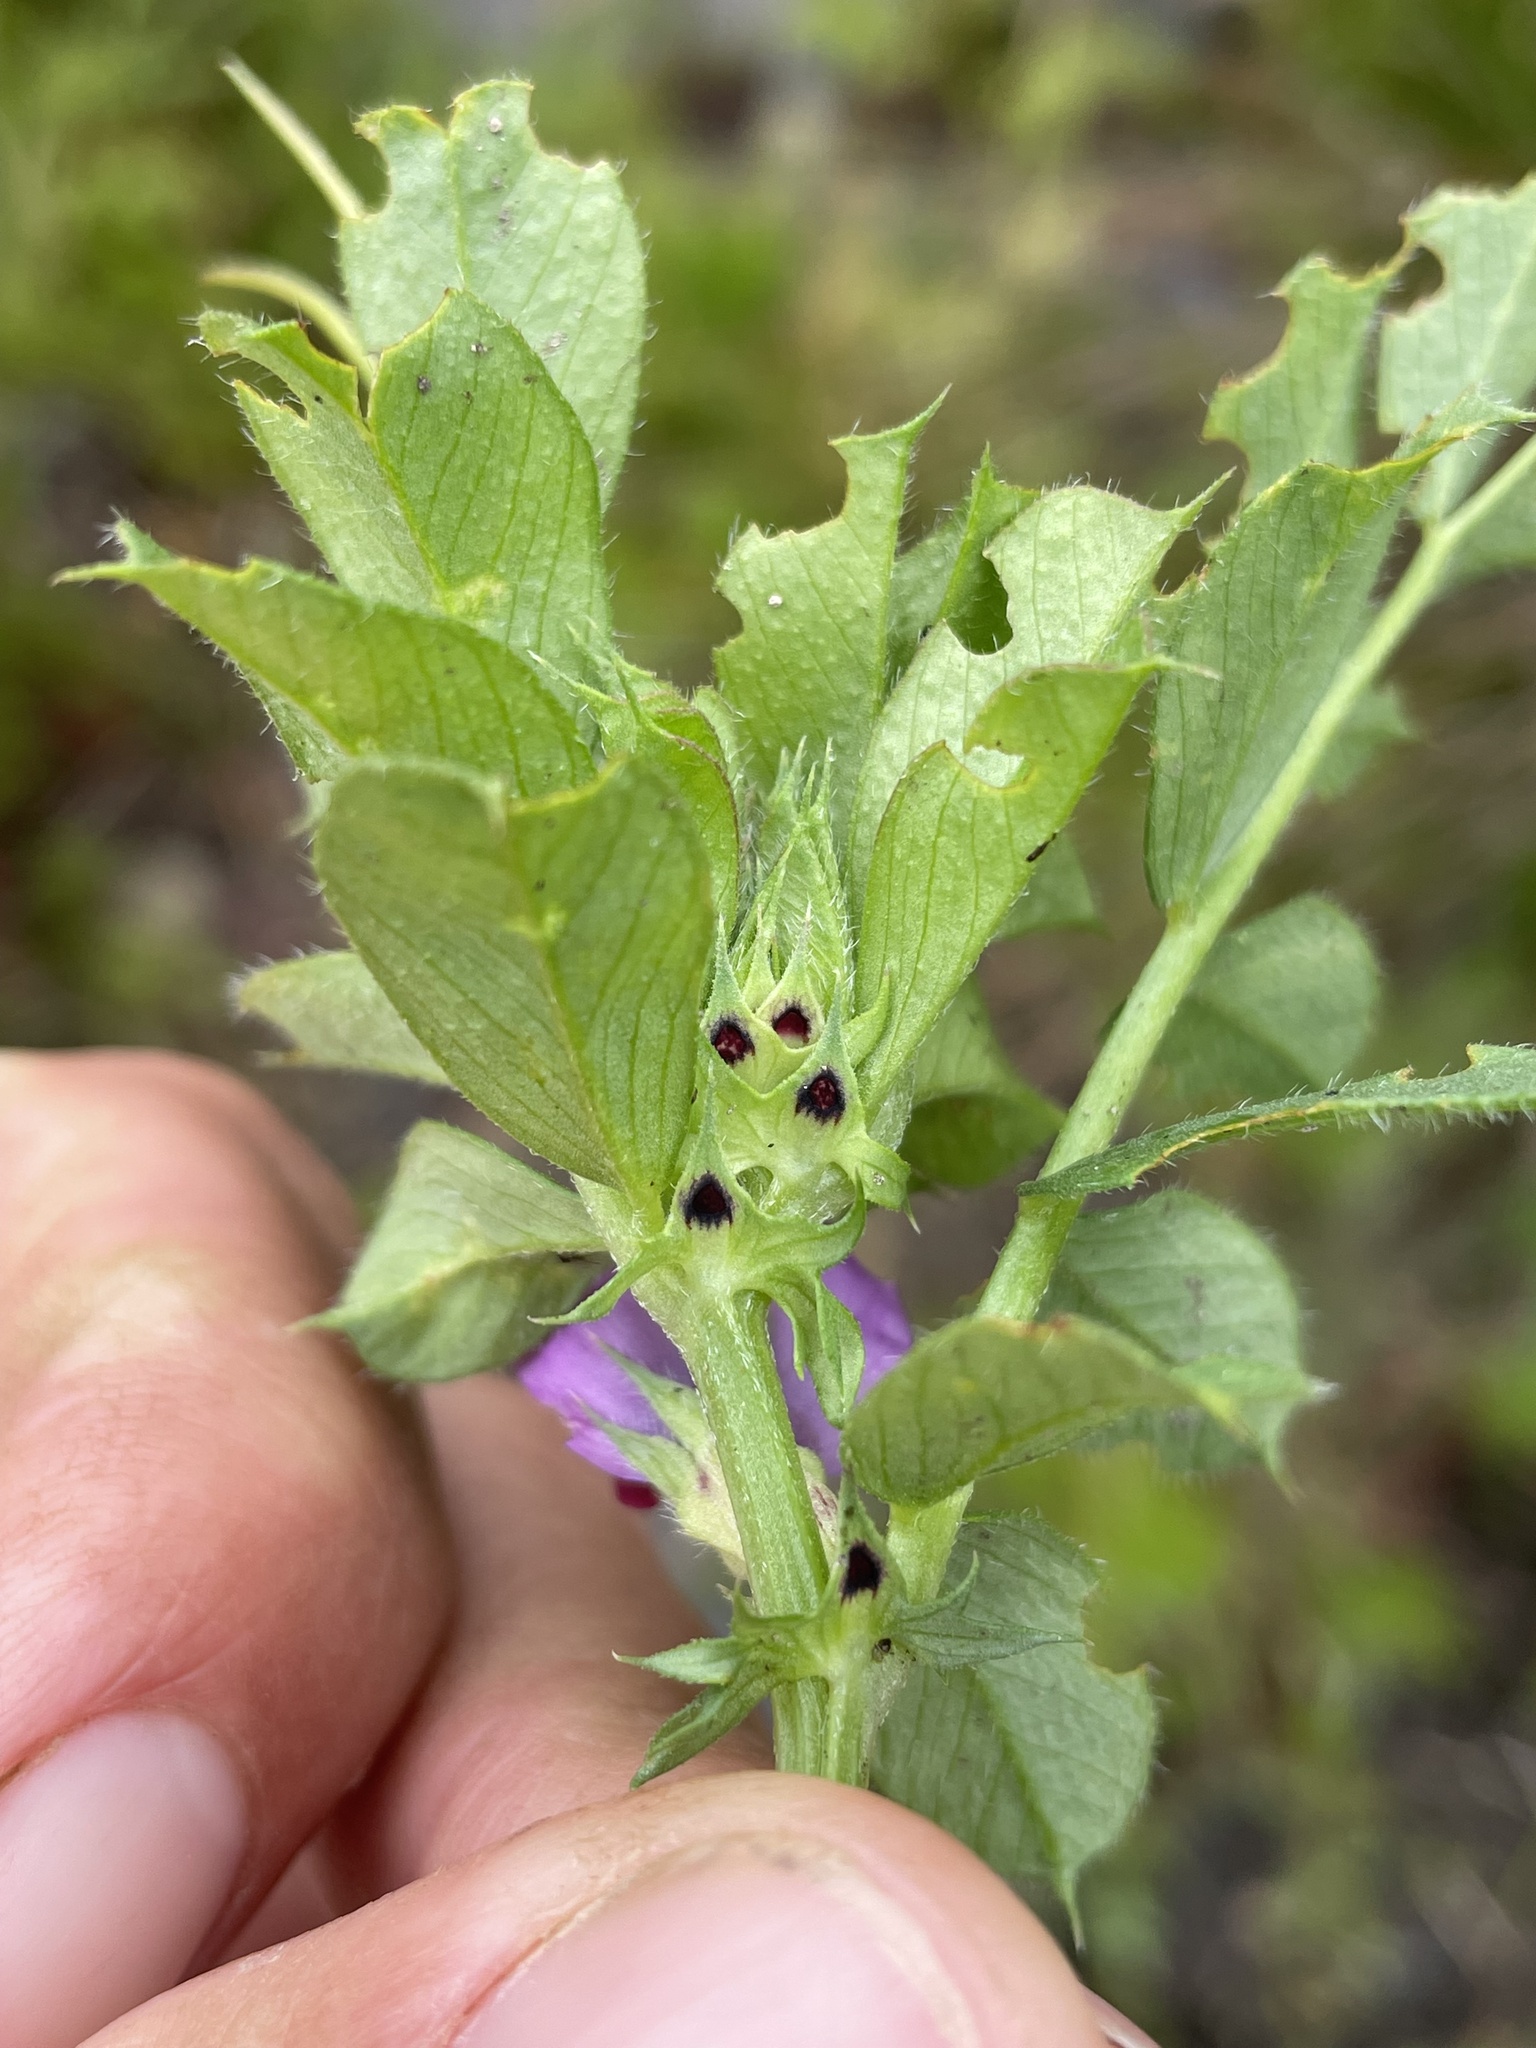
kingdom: Plantae
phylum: Tracheophyta
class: Magnoliopsida
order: Fabales
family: Fabaceae
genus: Vicia
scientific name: Vicia sativa
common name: Garden vetch
